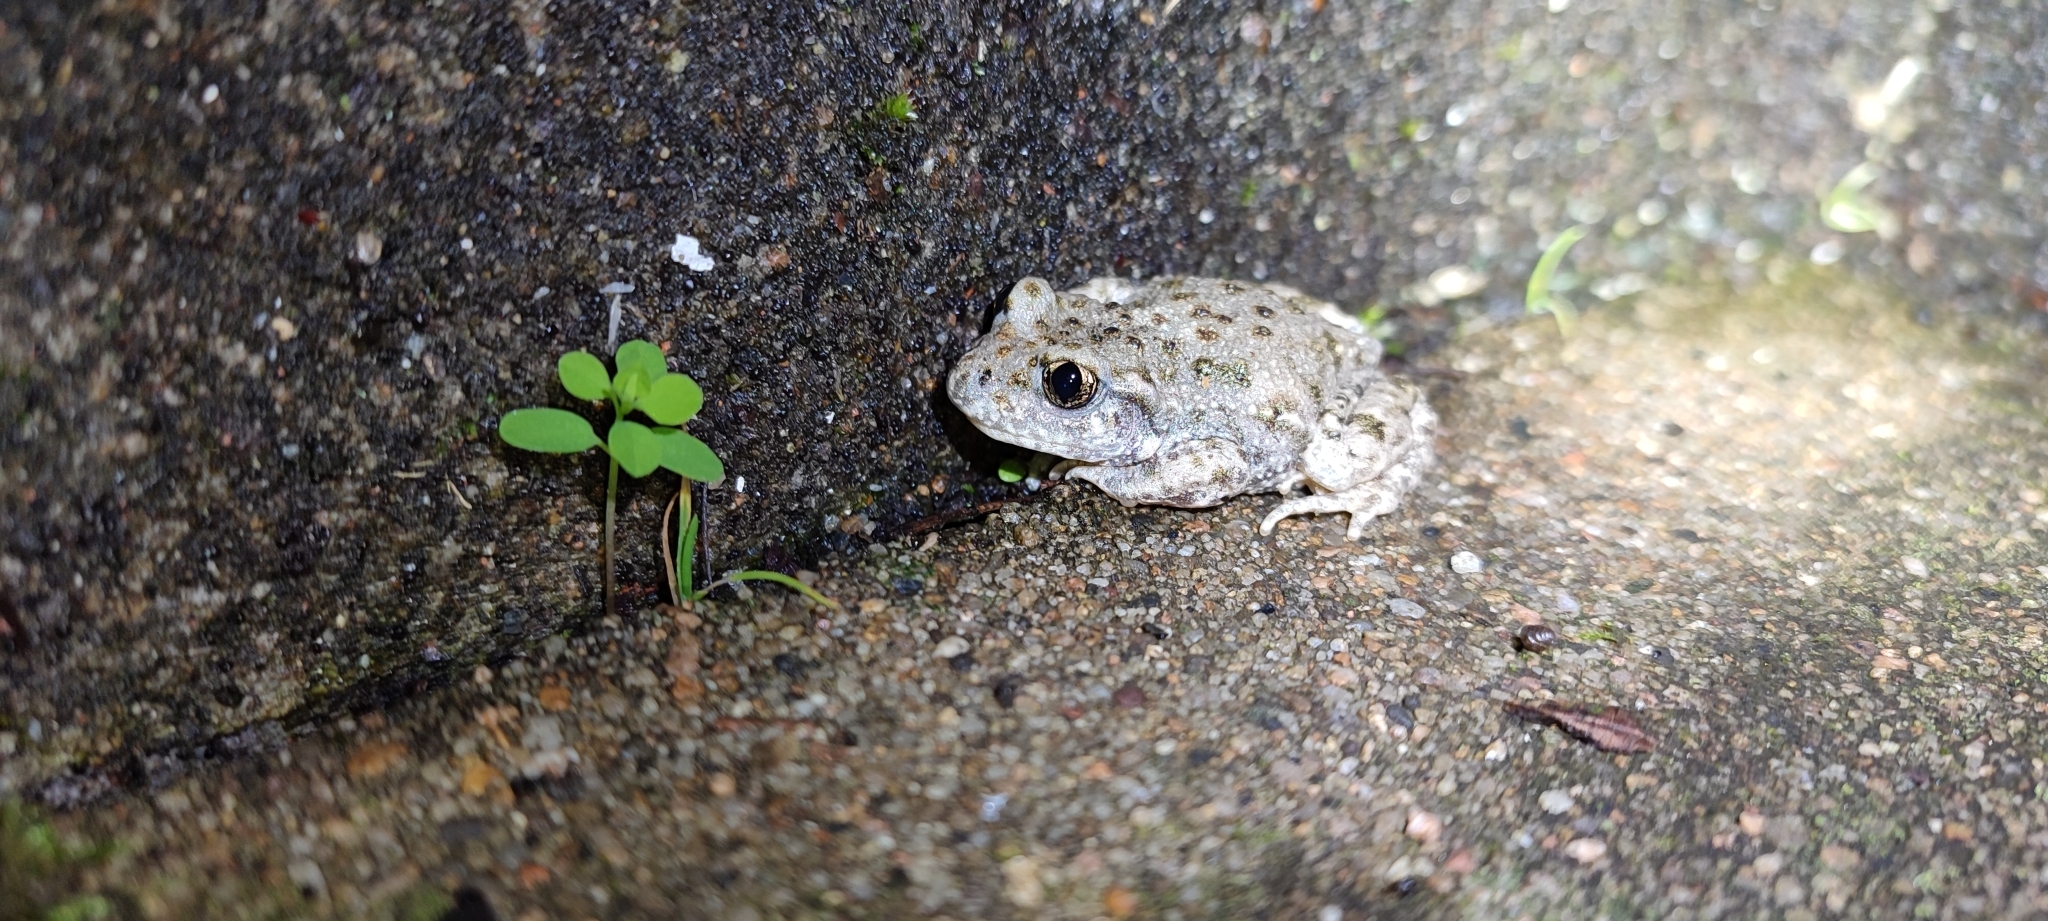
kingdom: Animalia
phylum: Chordata
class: Amphibia
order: Anura
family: Alytidae
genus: Alytes
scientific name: Alytes obstetricans
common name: Midwife toad
